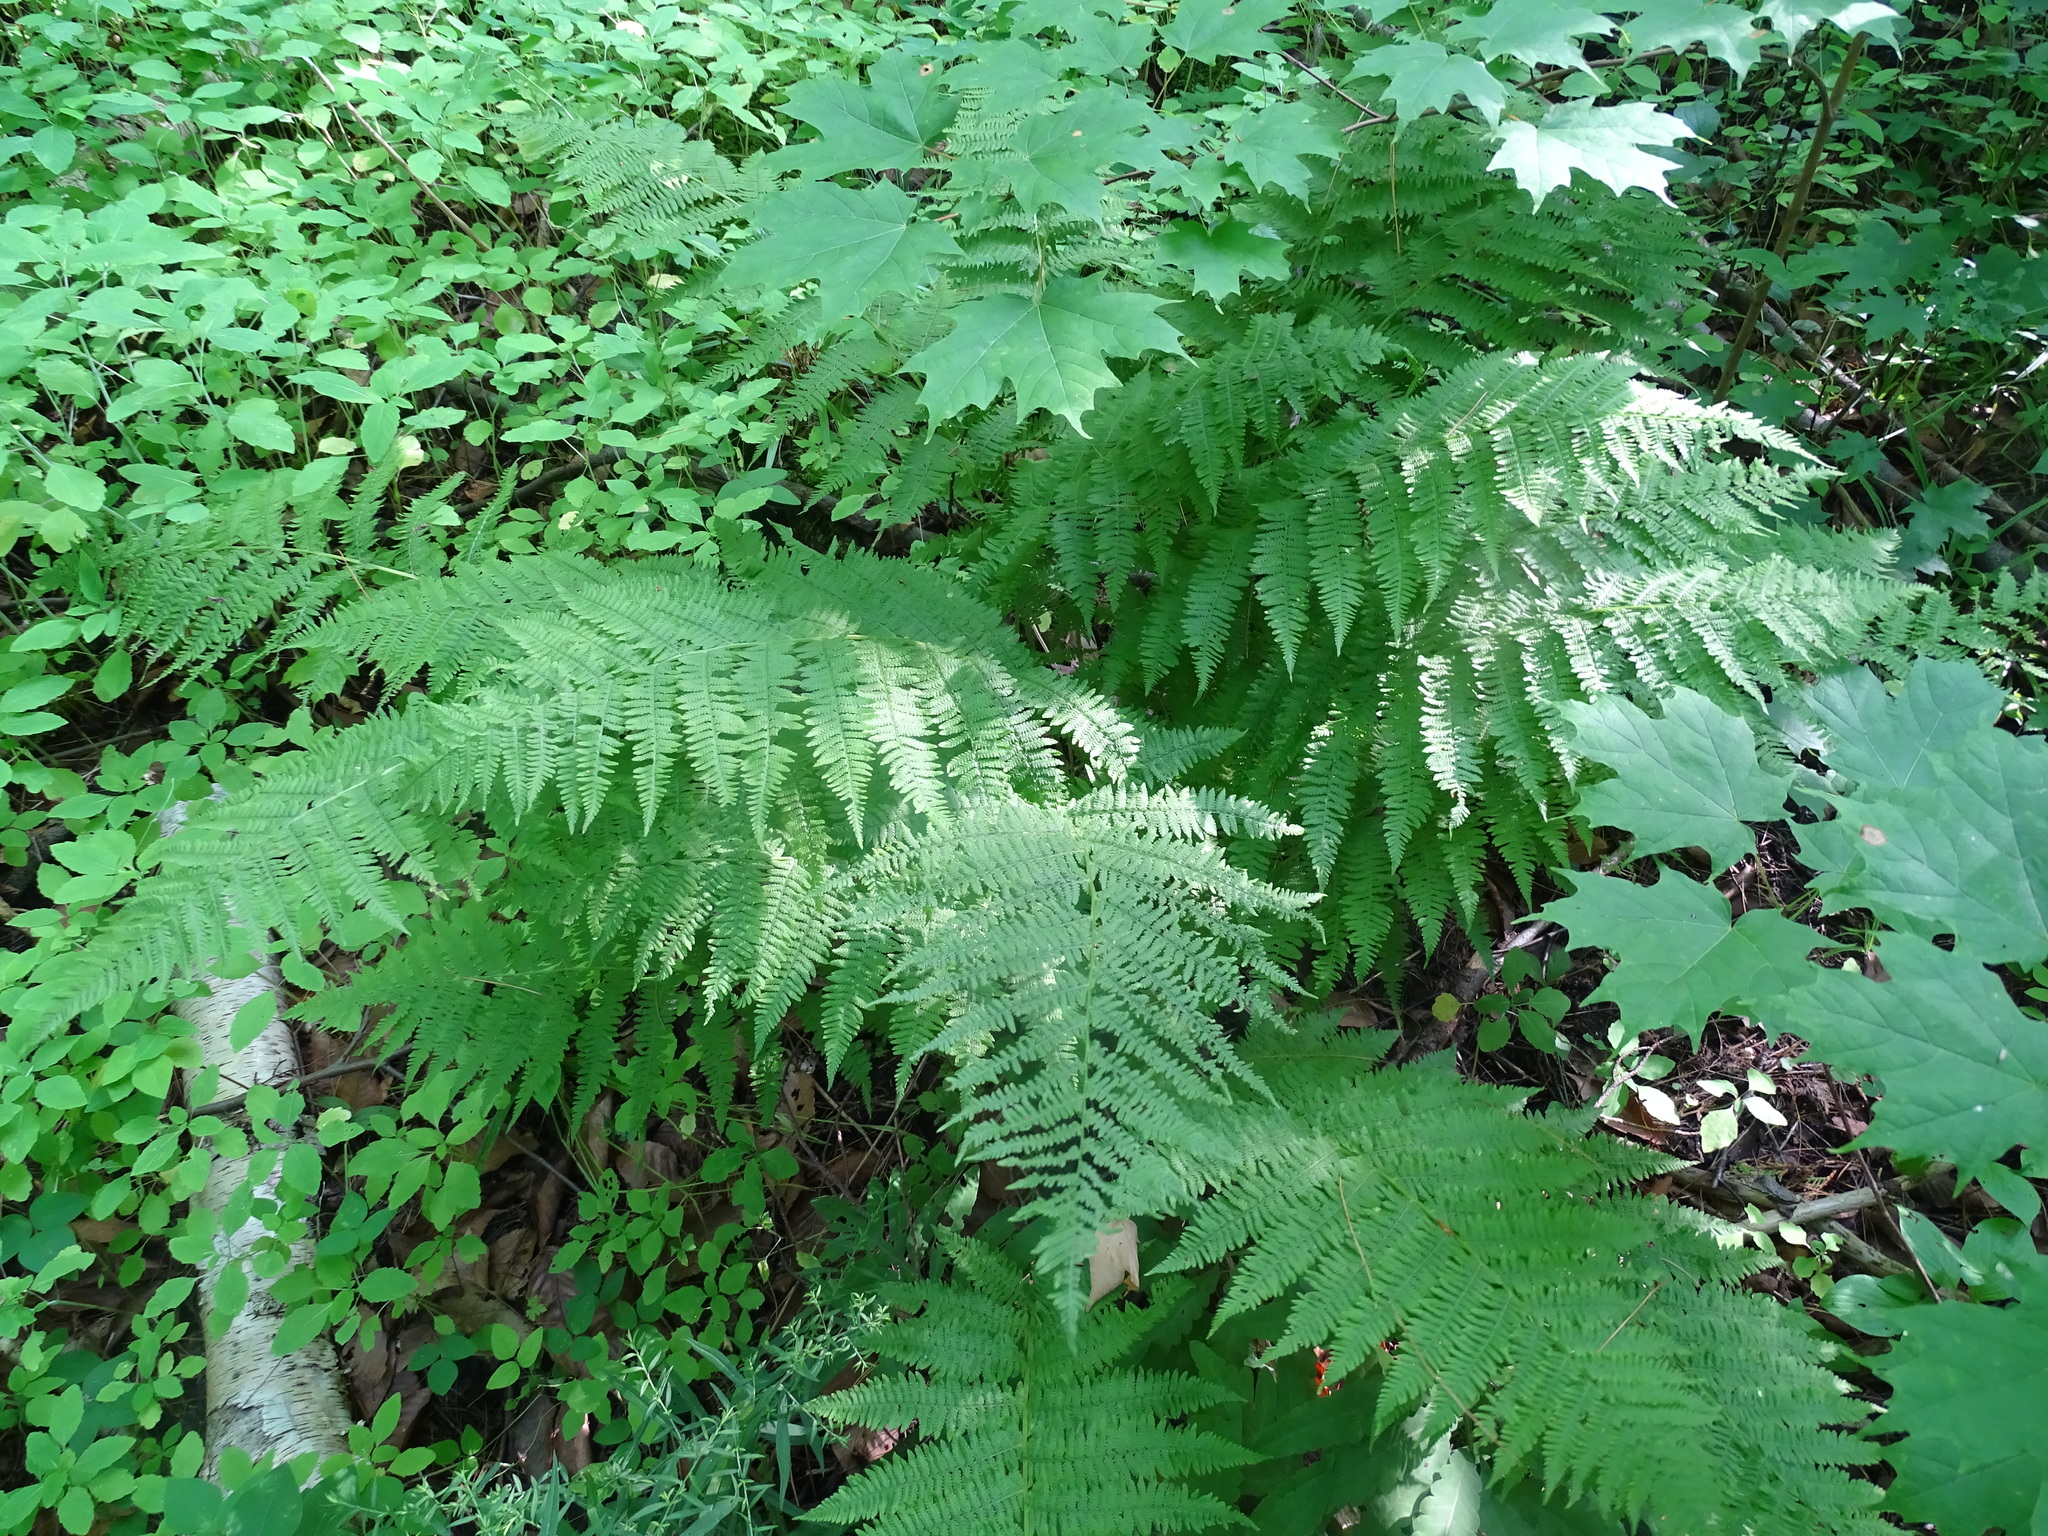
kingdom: Plantae
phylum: Tracheophyta
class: Polypodiopsida
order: Polypodiales
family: Athyriaceae
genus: Athyrium
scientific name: Athyrium angustum
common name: Northern lady fern
